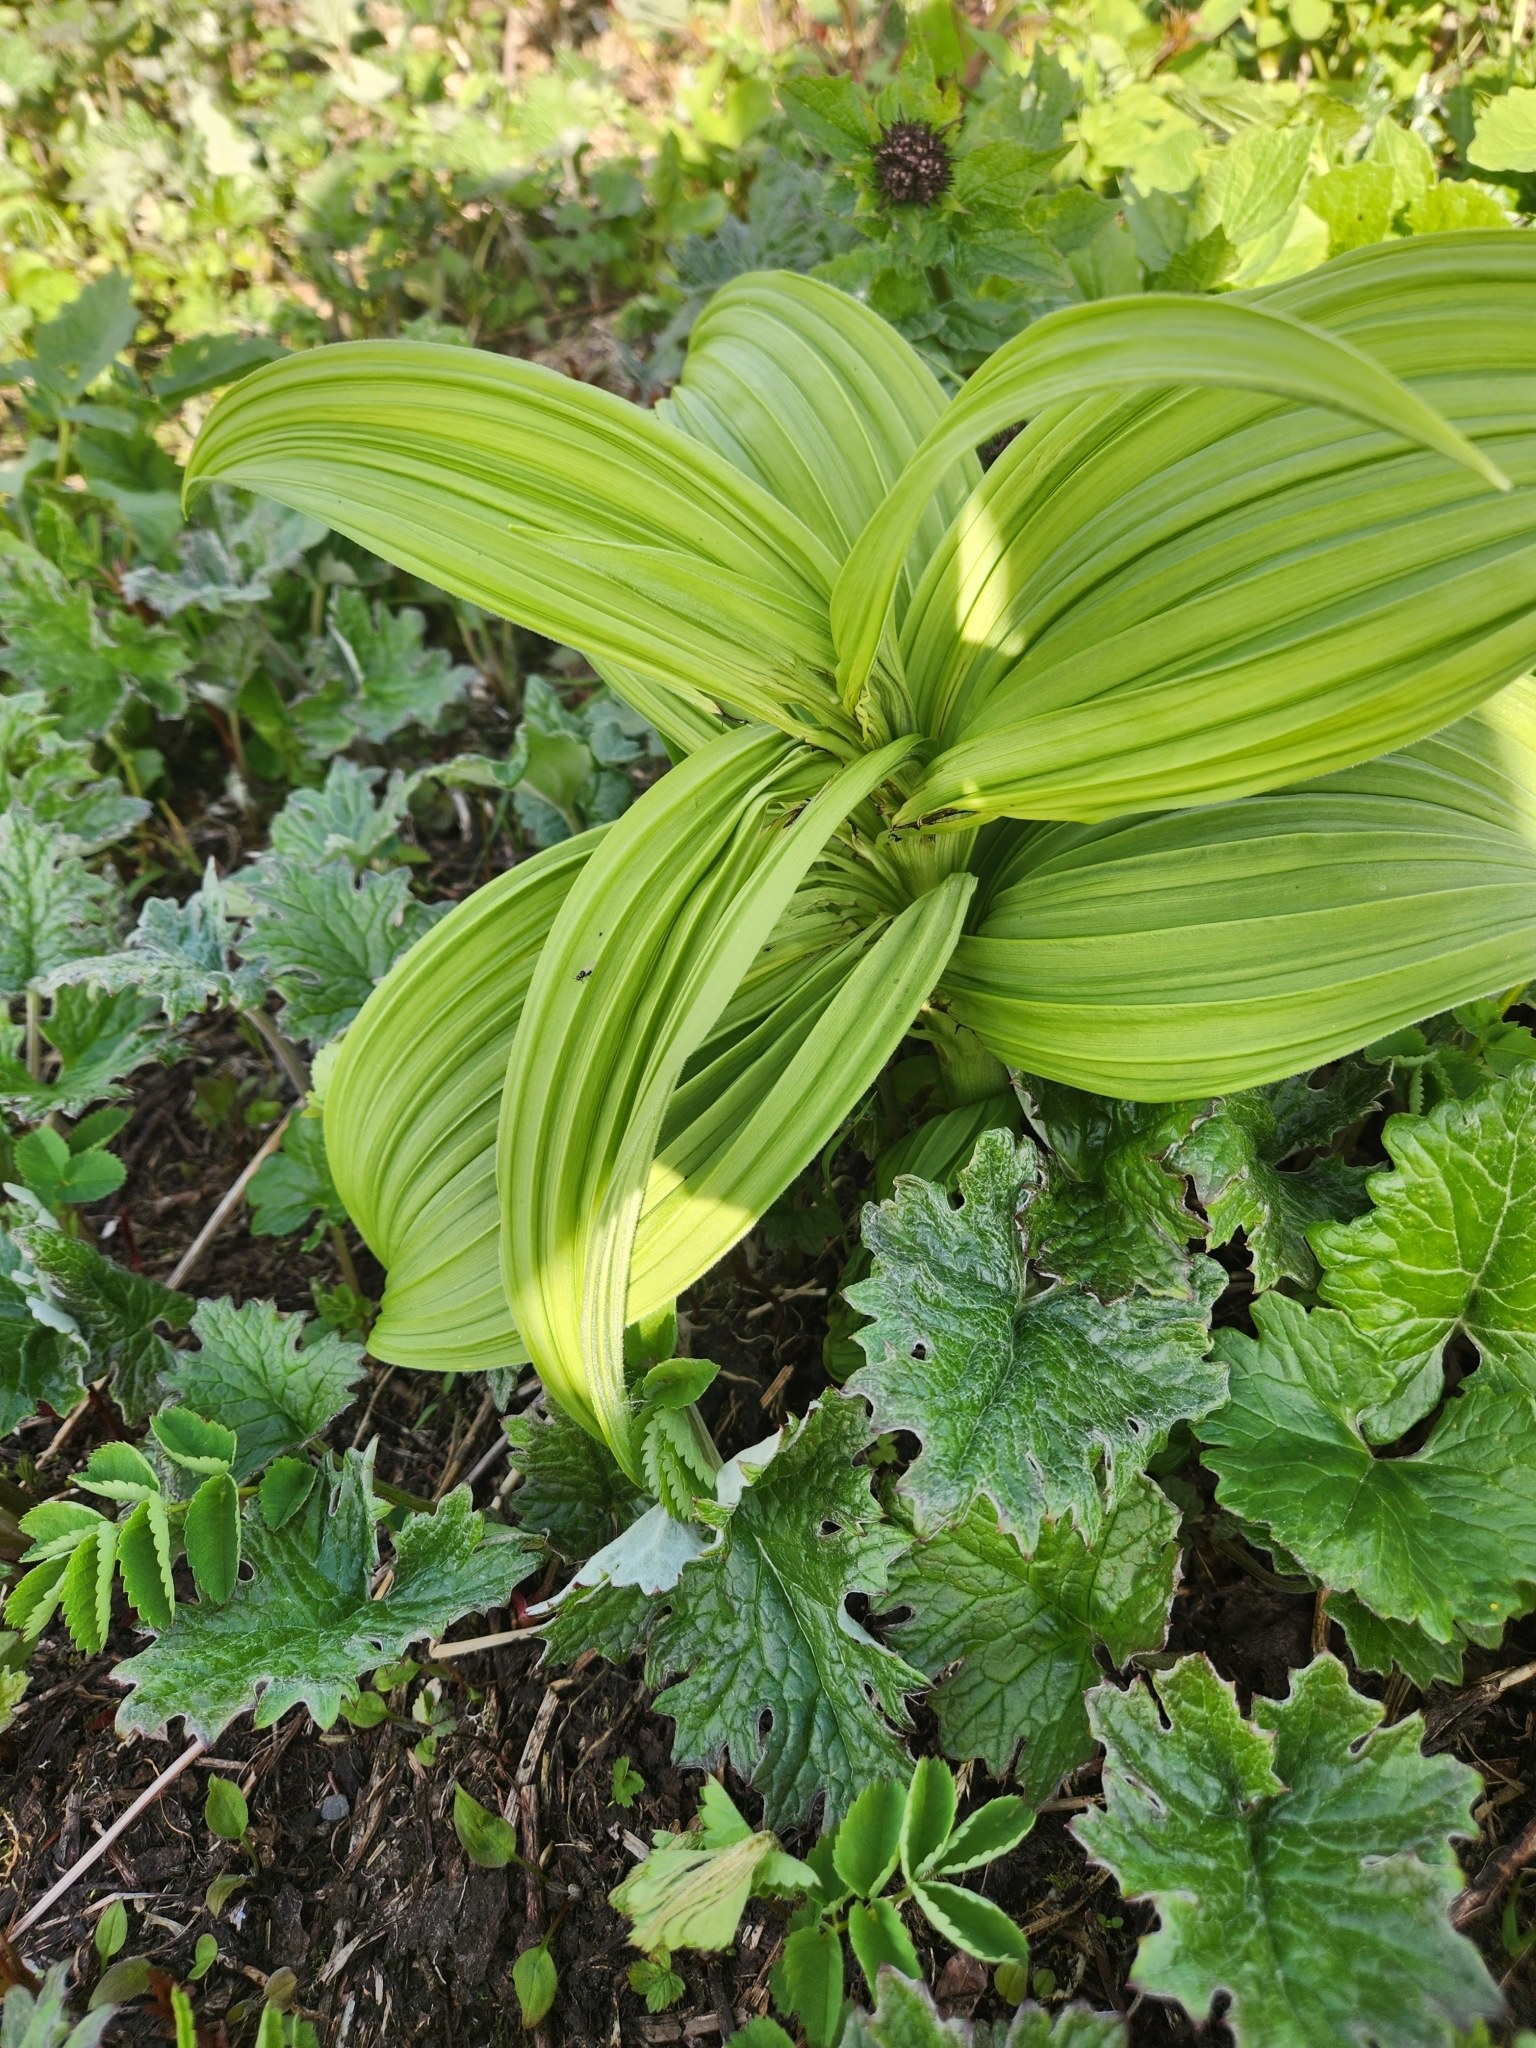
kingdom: Plantae
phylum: Tracheophyta
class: Liliopsida
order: Liliales
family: Melanthiaceae
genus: Veratrum
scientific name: Veratrum viride
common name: American false hellebore
